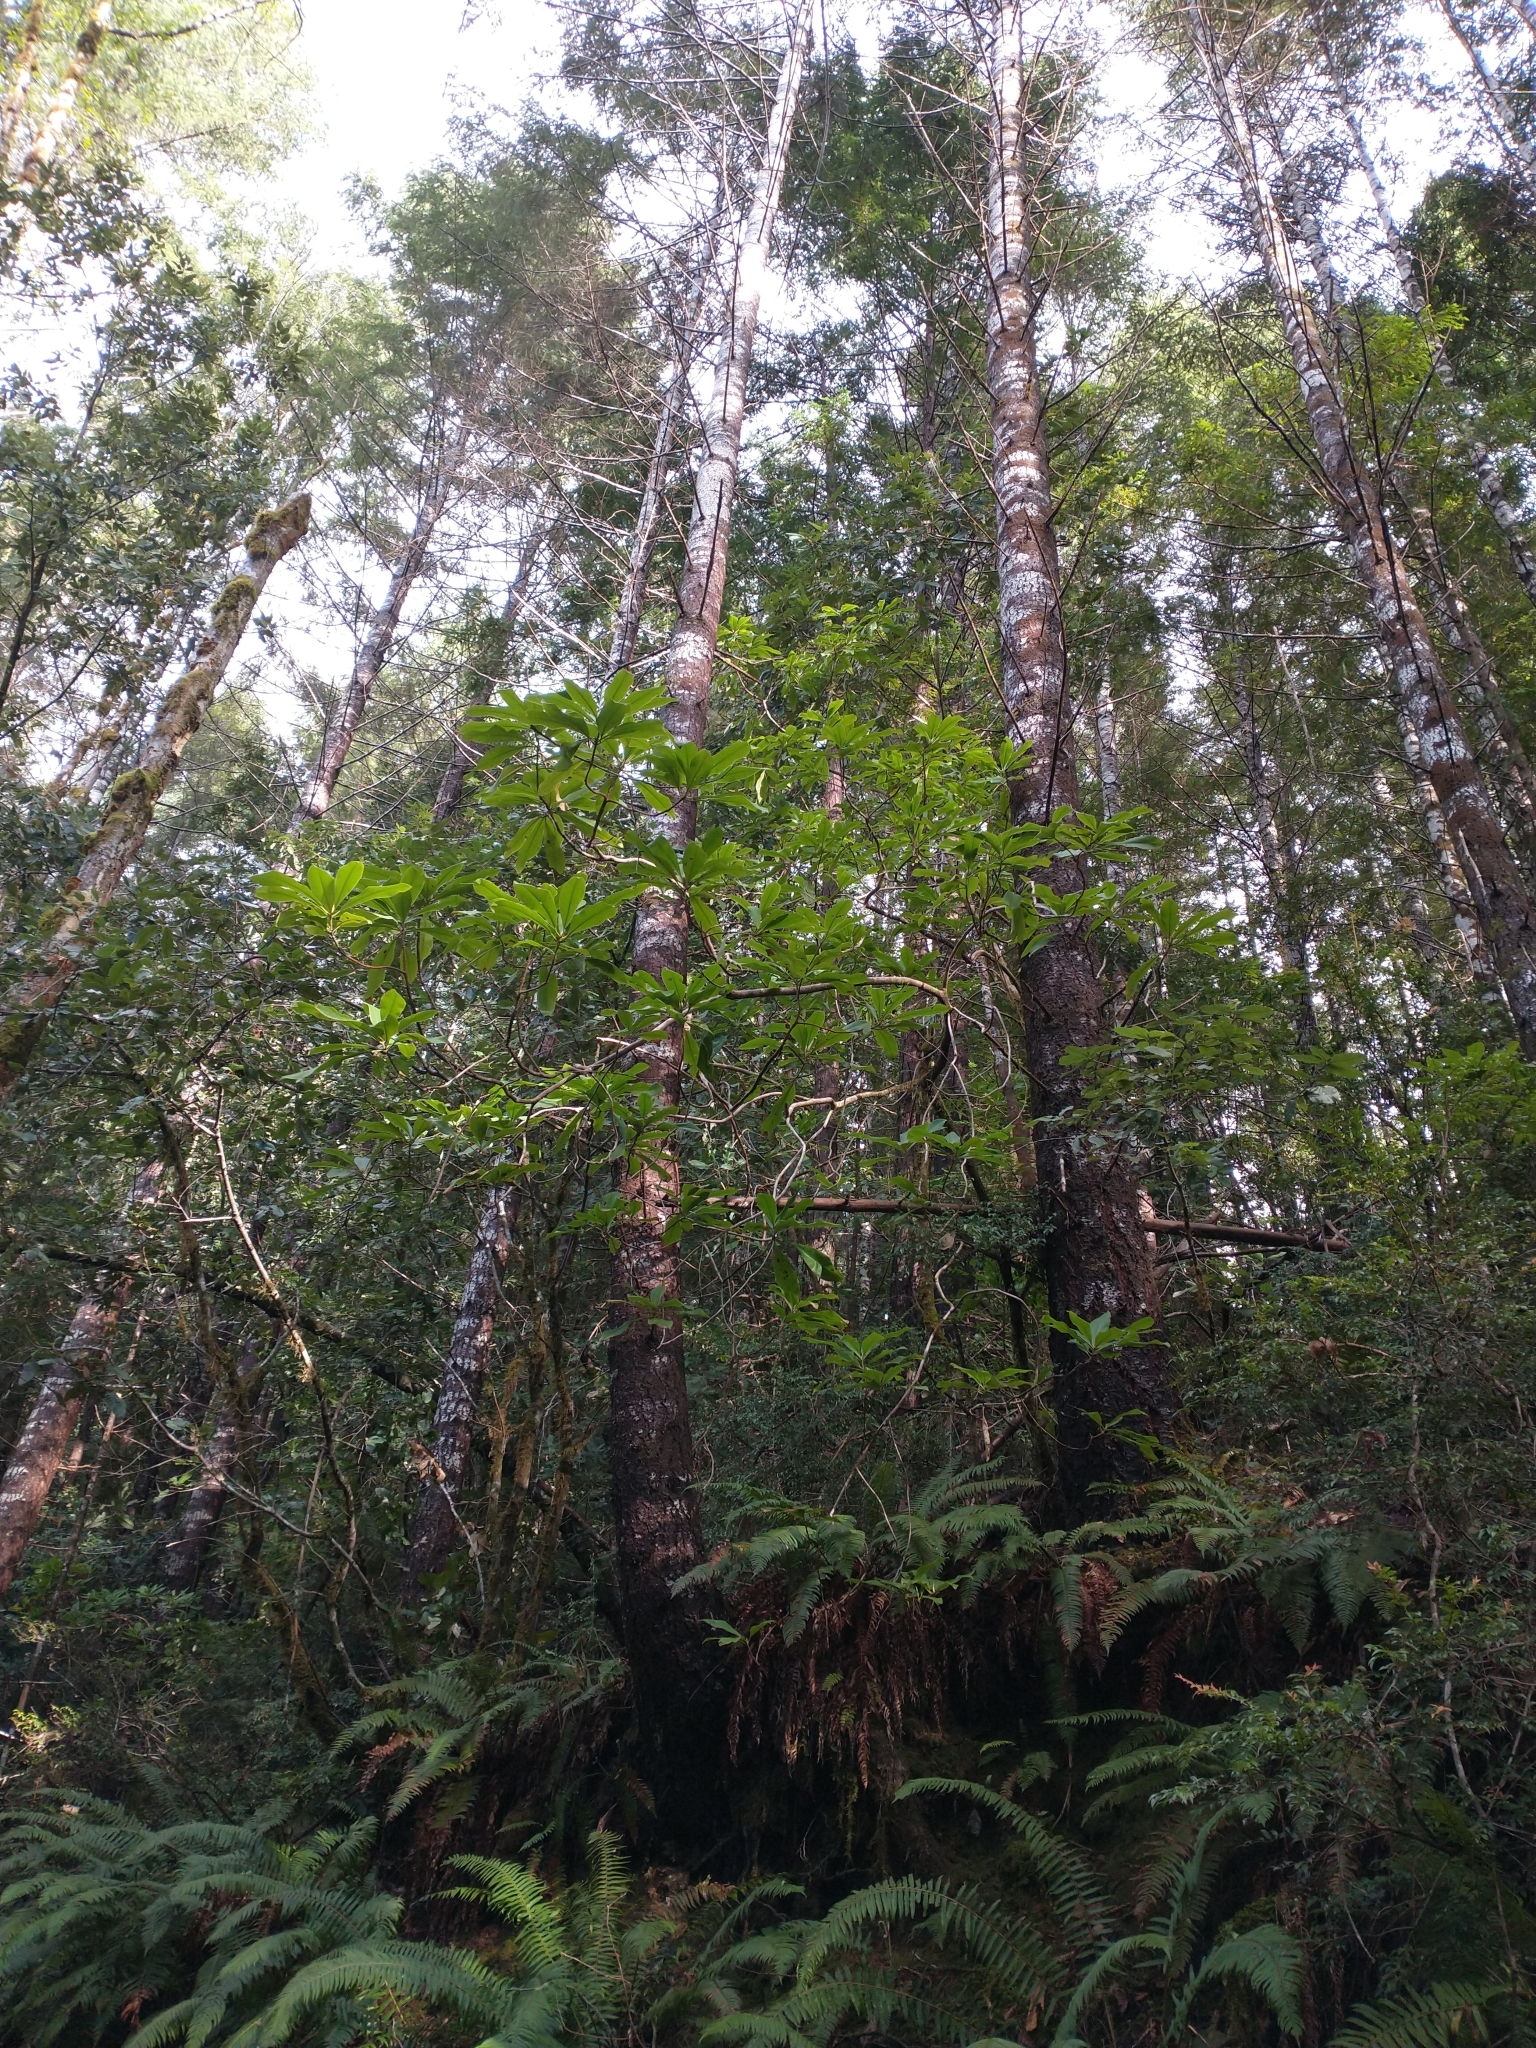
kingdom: Plantae
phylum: Tracheophyta
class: Magnoliopsida
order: Ericales
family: Ericaceae
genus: Rhododendron
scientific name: Rhododendron macrophyllum
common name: California rose bay
